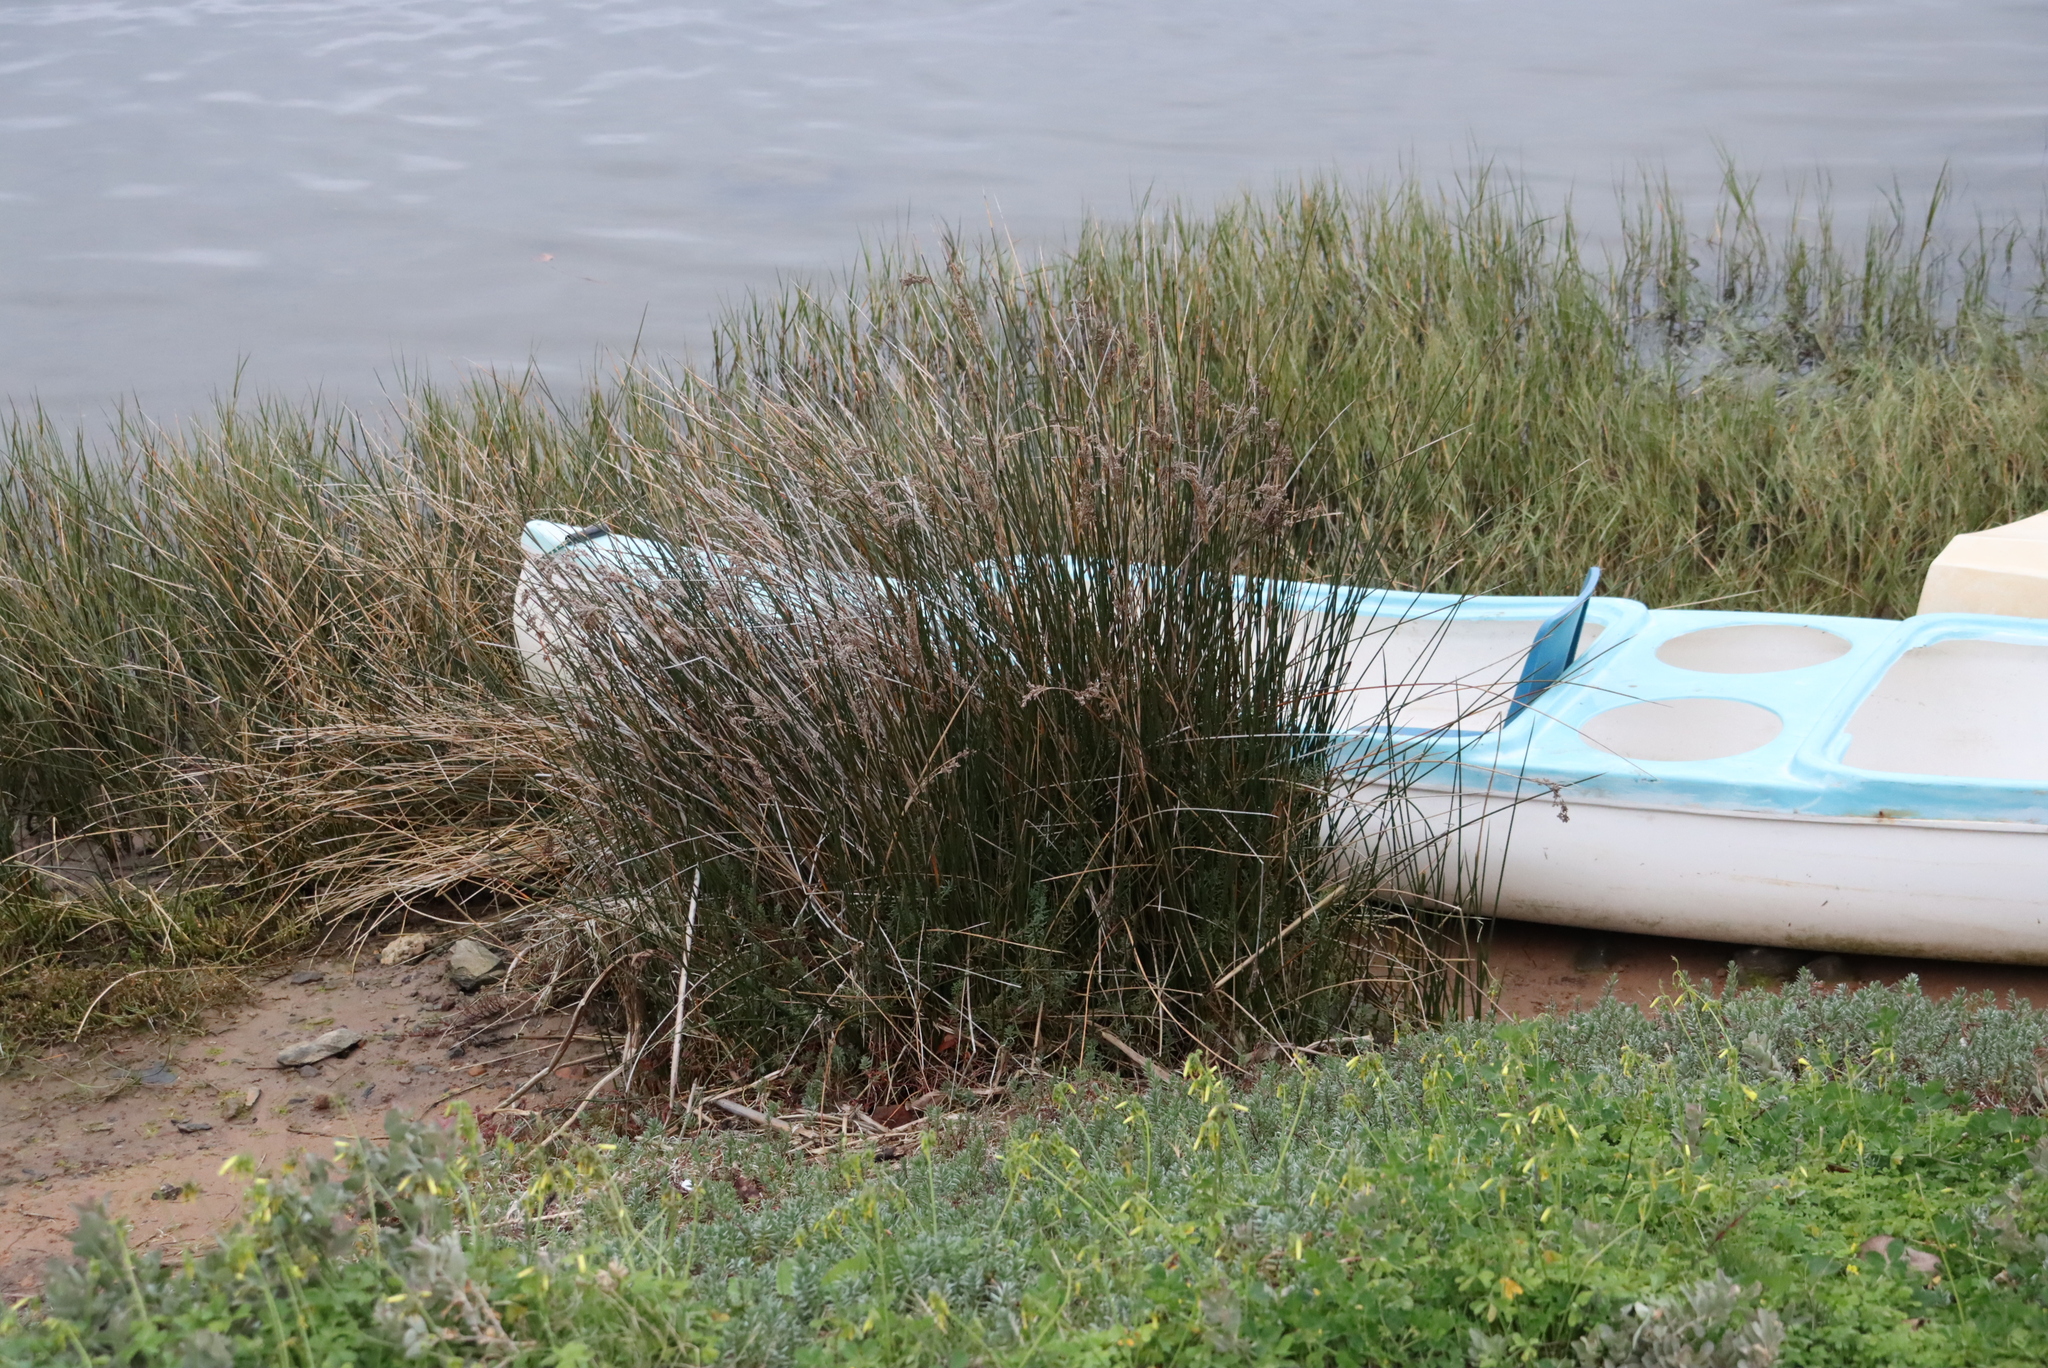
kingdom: Plantae
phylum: Tracheophyta
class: Liliopsida
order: Poales
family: Juncaceae
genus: Juncus
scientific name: Juncus kraussii
